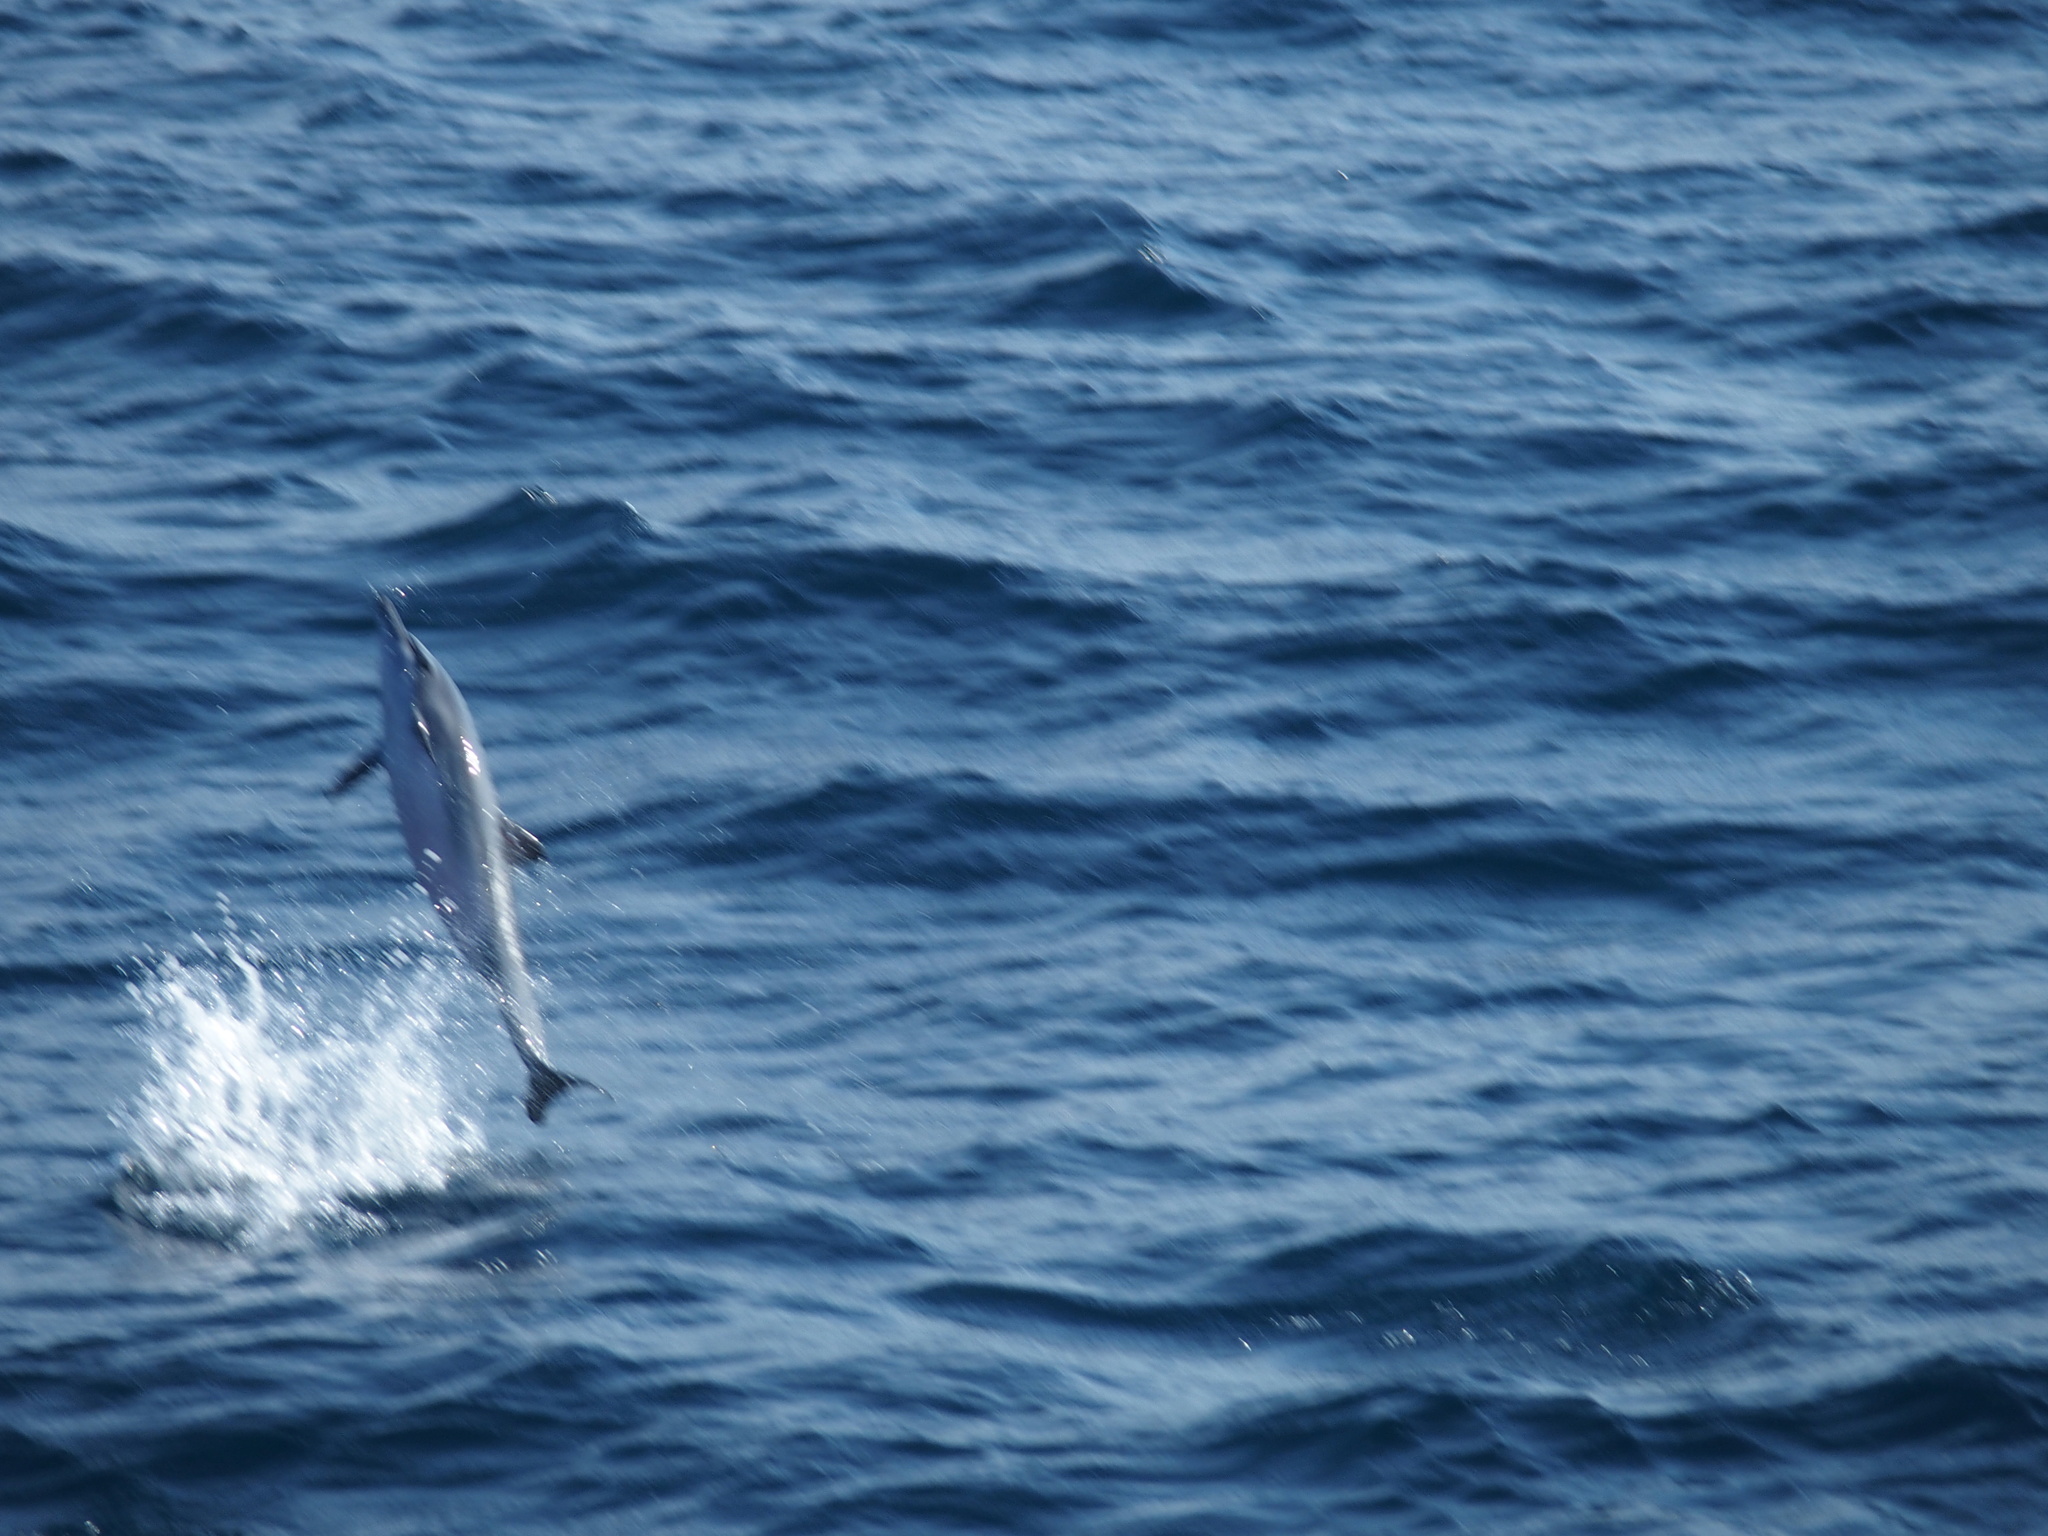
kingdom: Animalia
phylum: Chordata
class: Mammalia
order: Cetacea
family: Delphinidae
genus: Stenella
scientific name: Stenella longirostris
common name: Spinner dolphin
